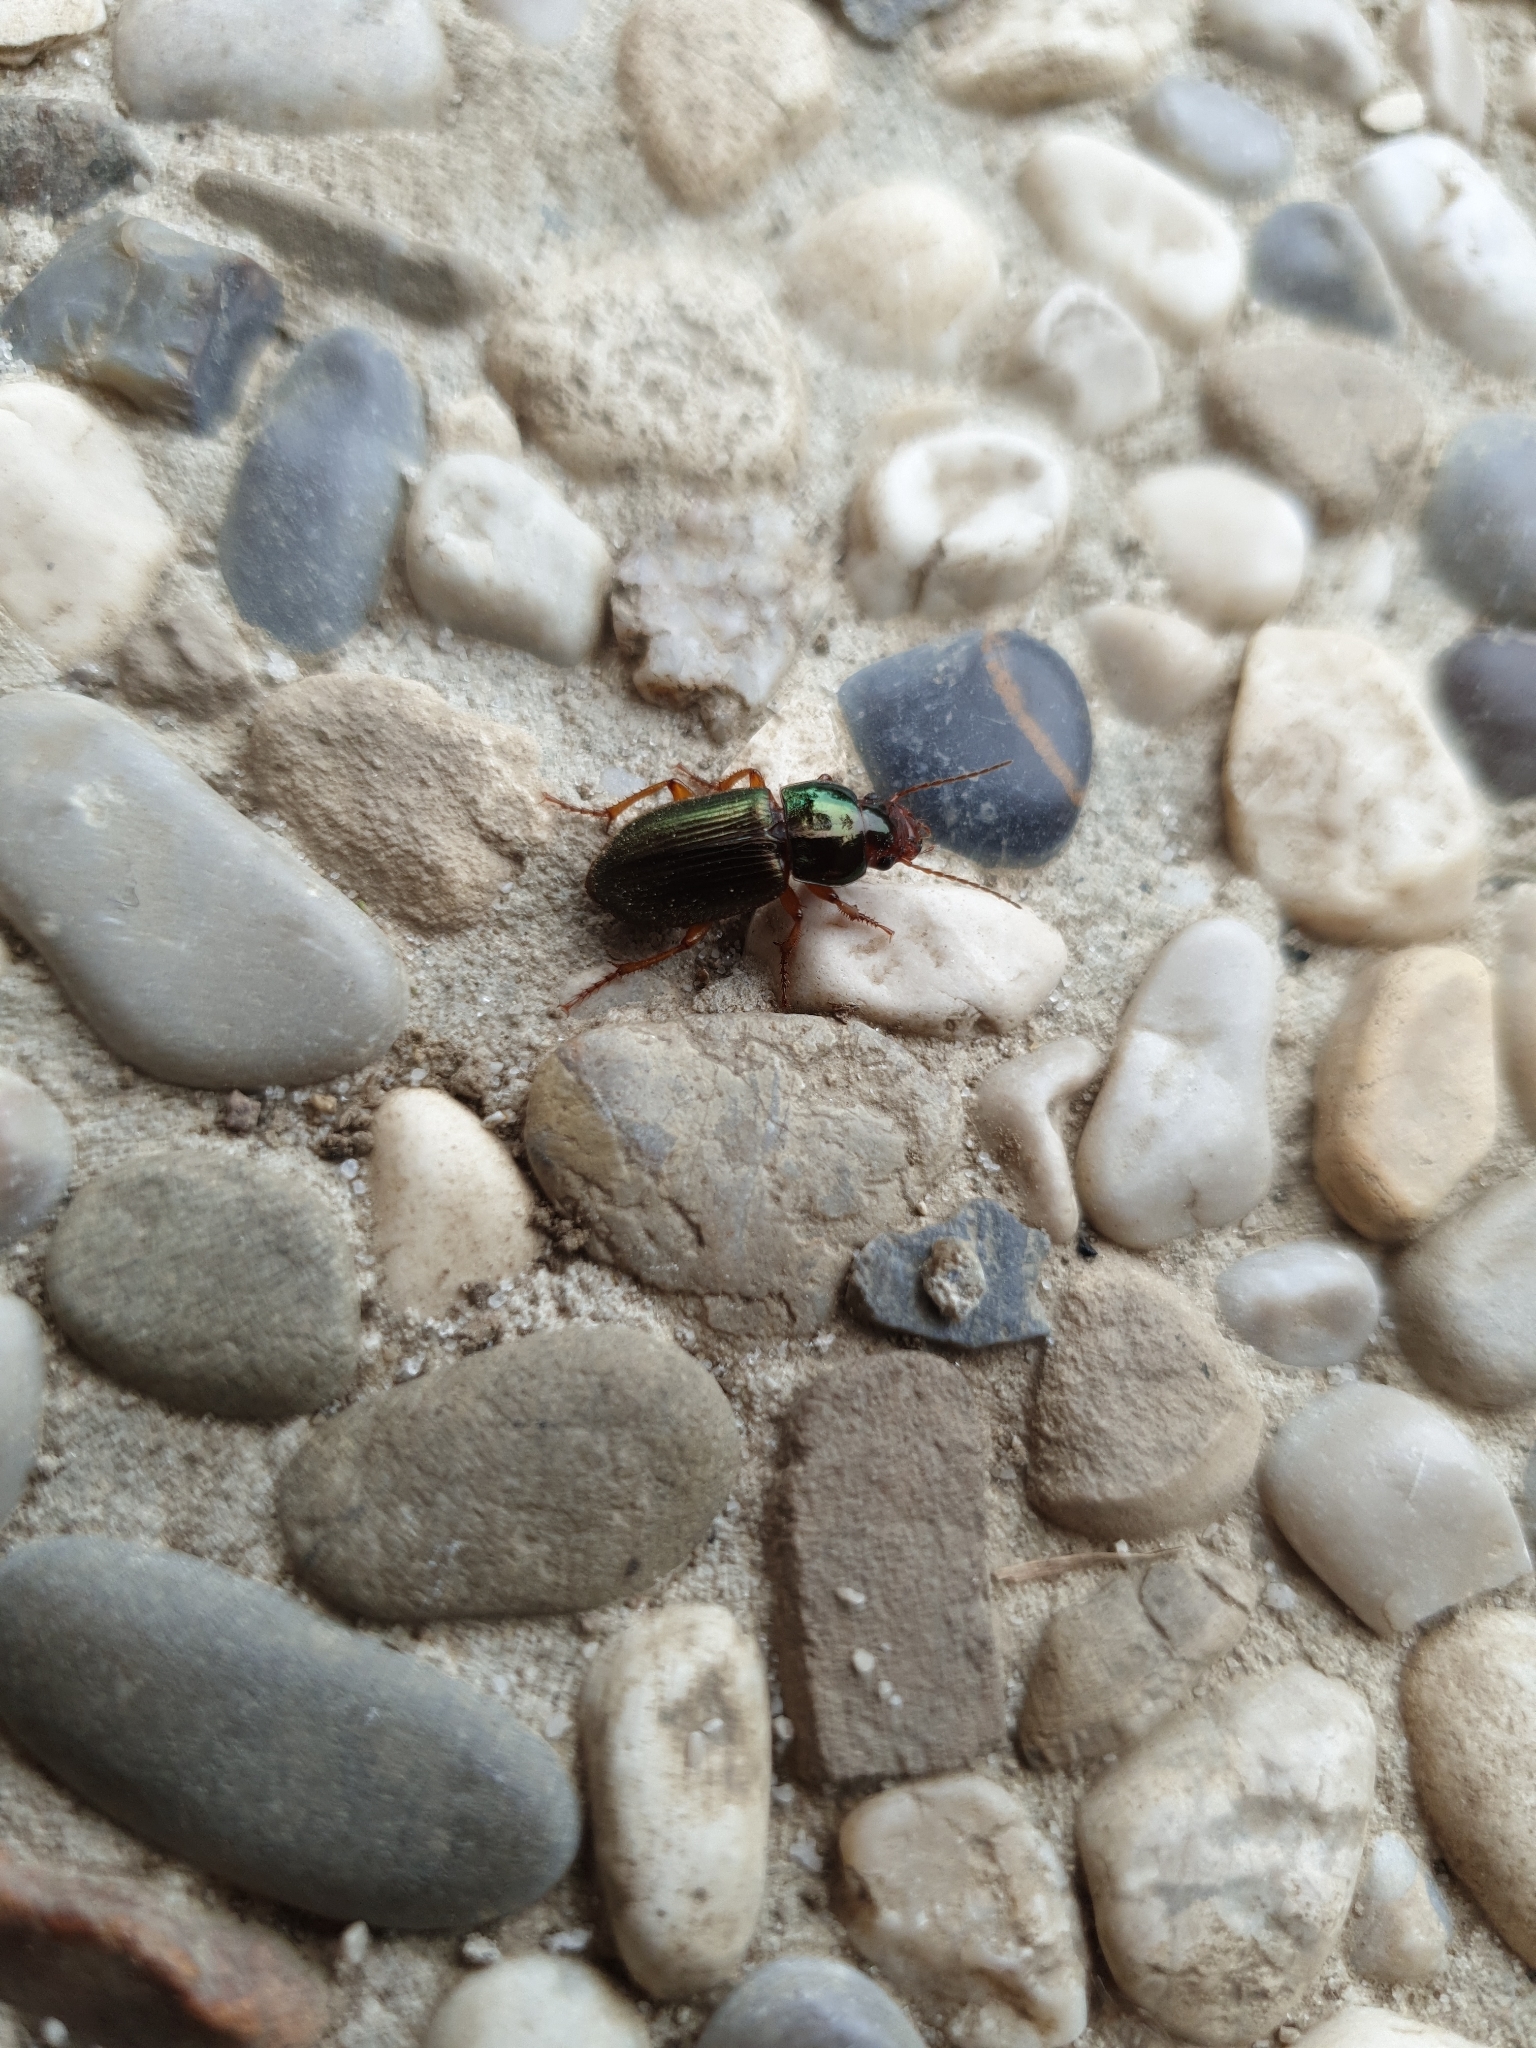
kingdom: Animalia
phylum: Arthropoda
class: Insecta
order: Coleoptera
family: Carabidae
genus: Harpalus
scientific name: Harpalus affinis
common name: Polychrome harp ground beetle
